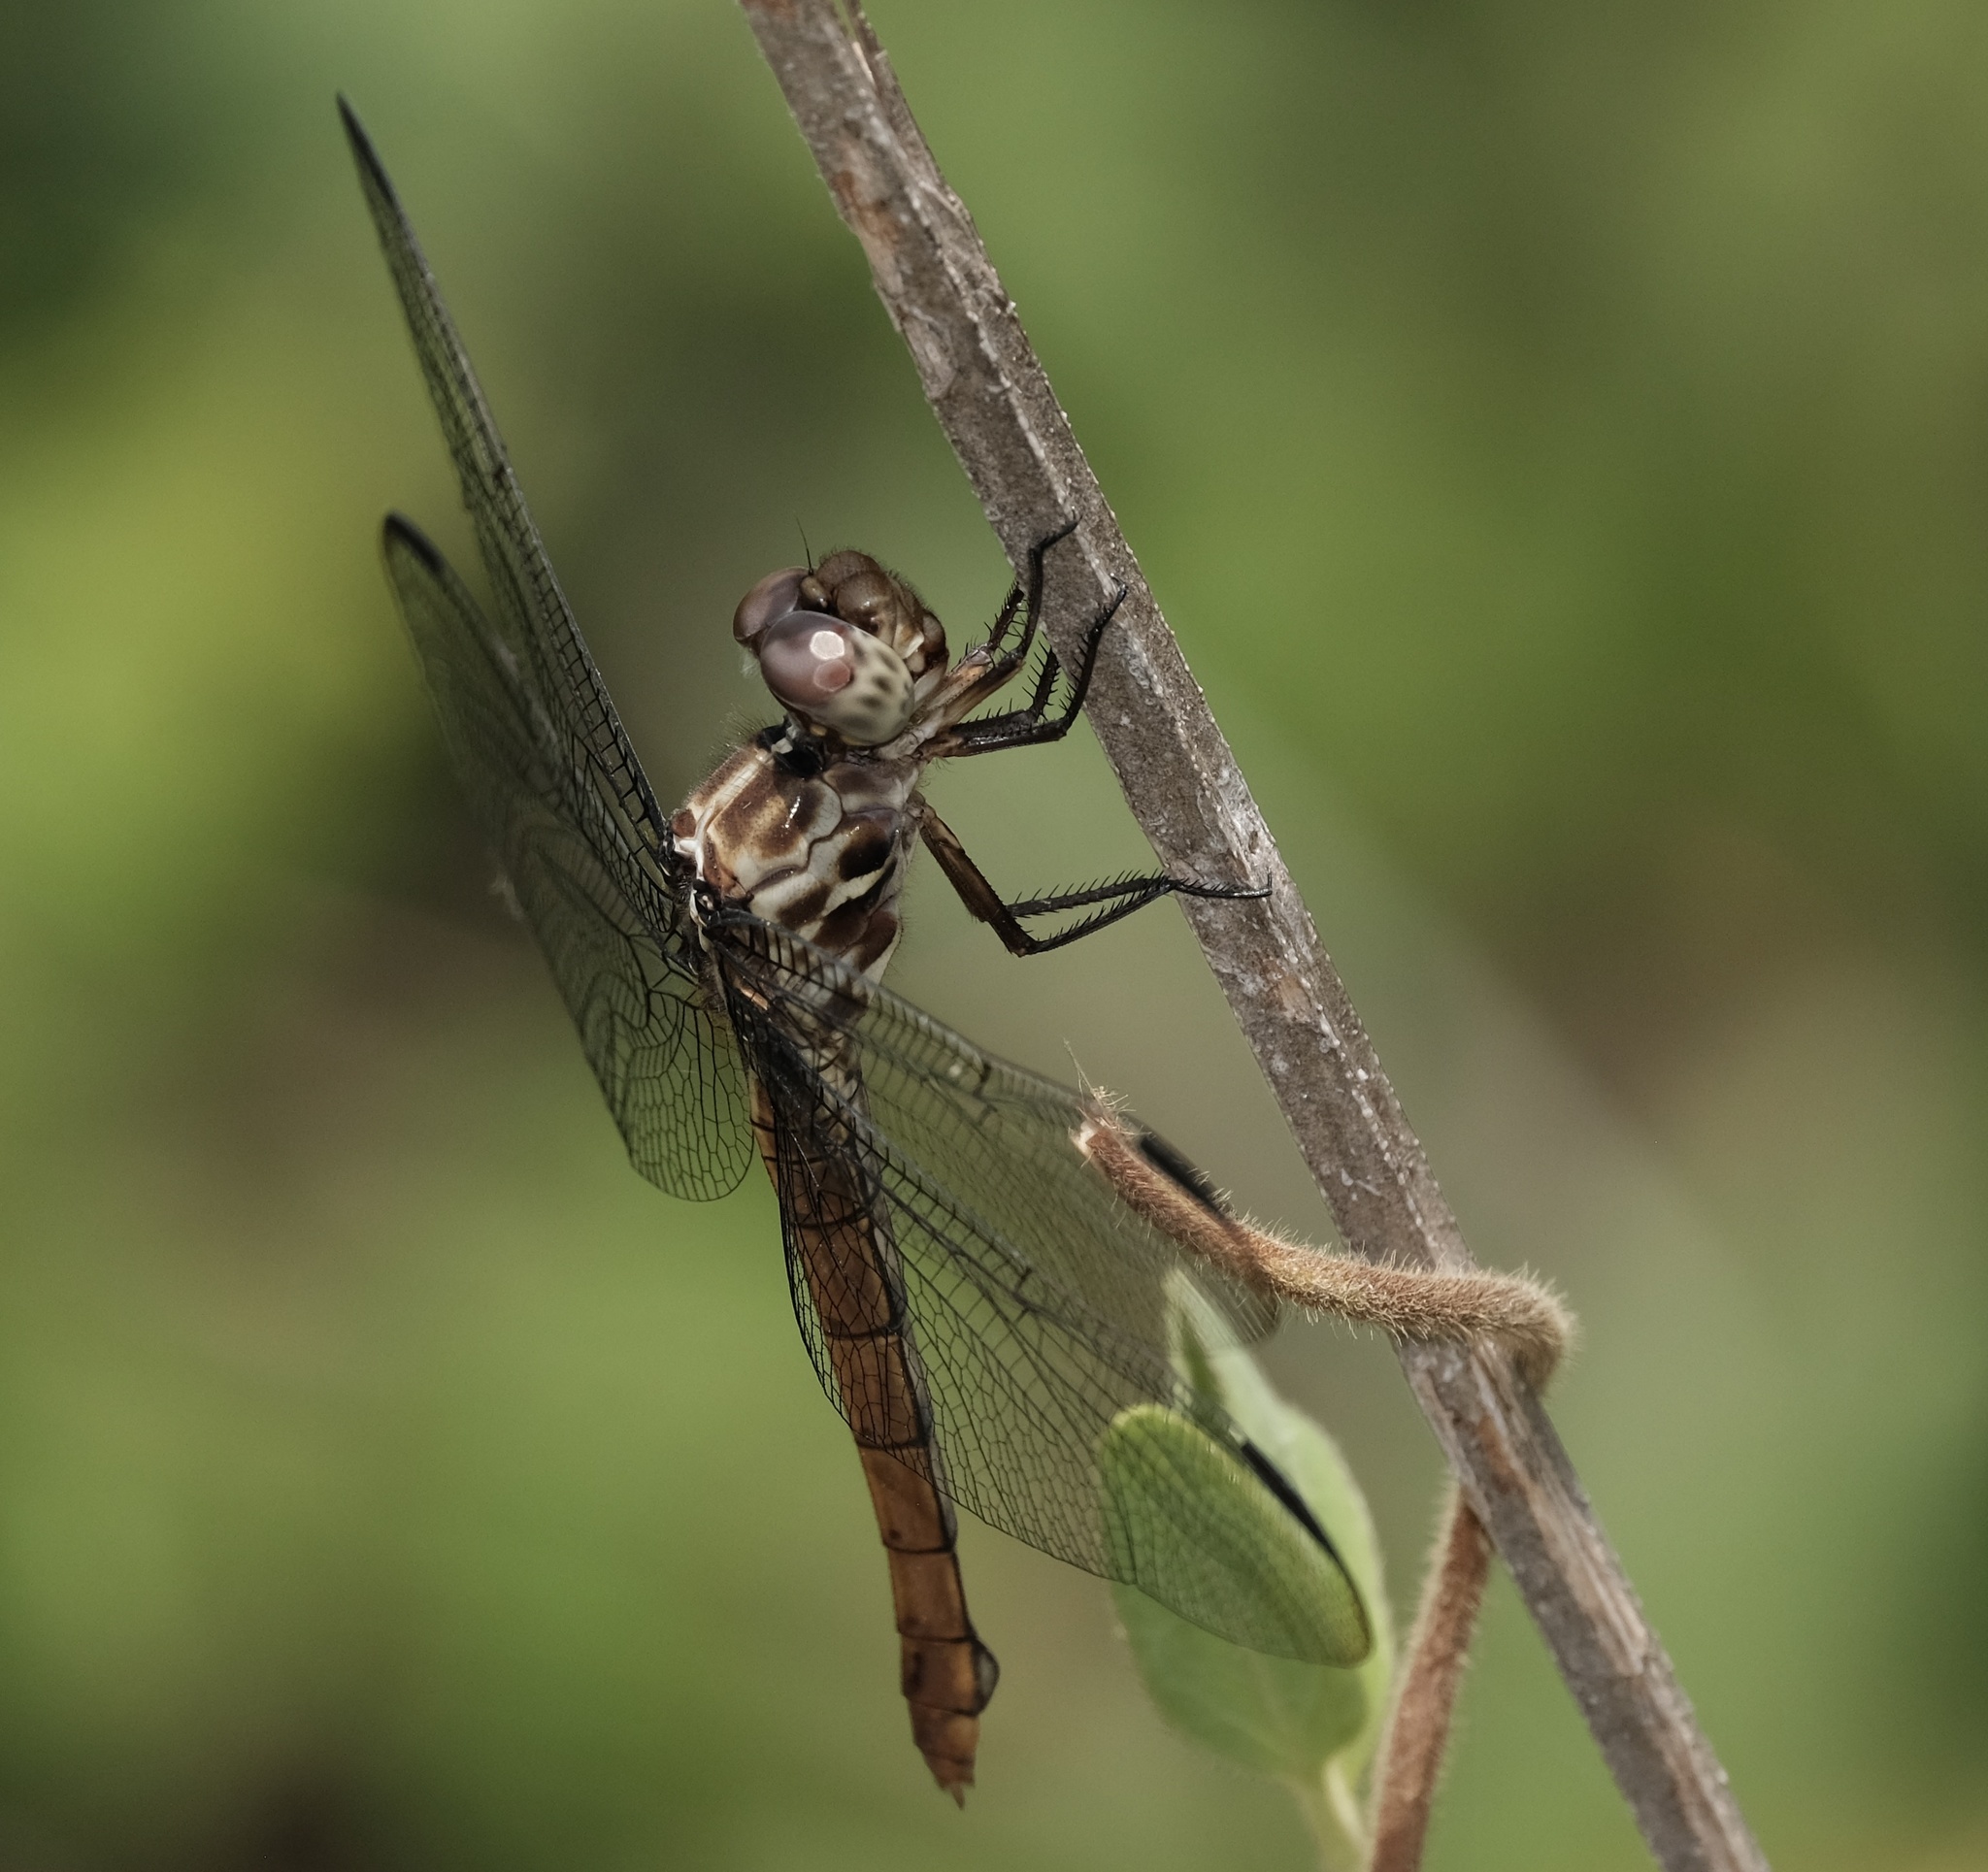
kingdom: Animalia
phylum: Arthropoda
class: Insecta
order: Odonata
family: Libellulidae
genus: Orthemis
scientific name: Orthemis ferruginea
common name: Roseate skimmer
